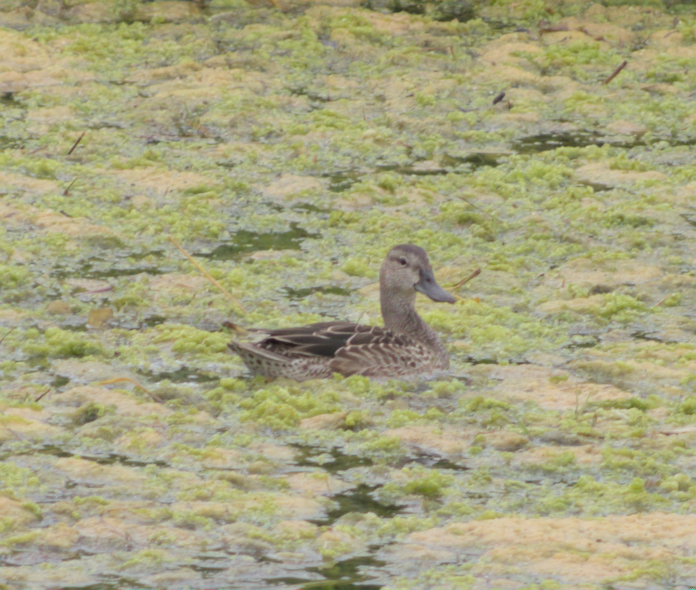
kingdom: Animalia
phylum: Chordata
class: Aves
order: Anseriformes
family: Anatidae
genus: Spatula
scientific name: Spatula discors
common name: Blue-winged teal
